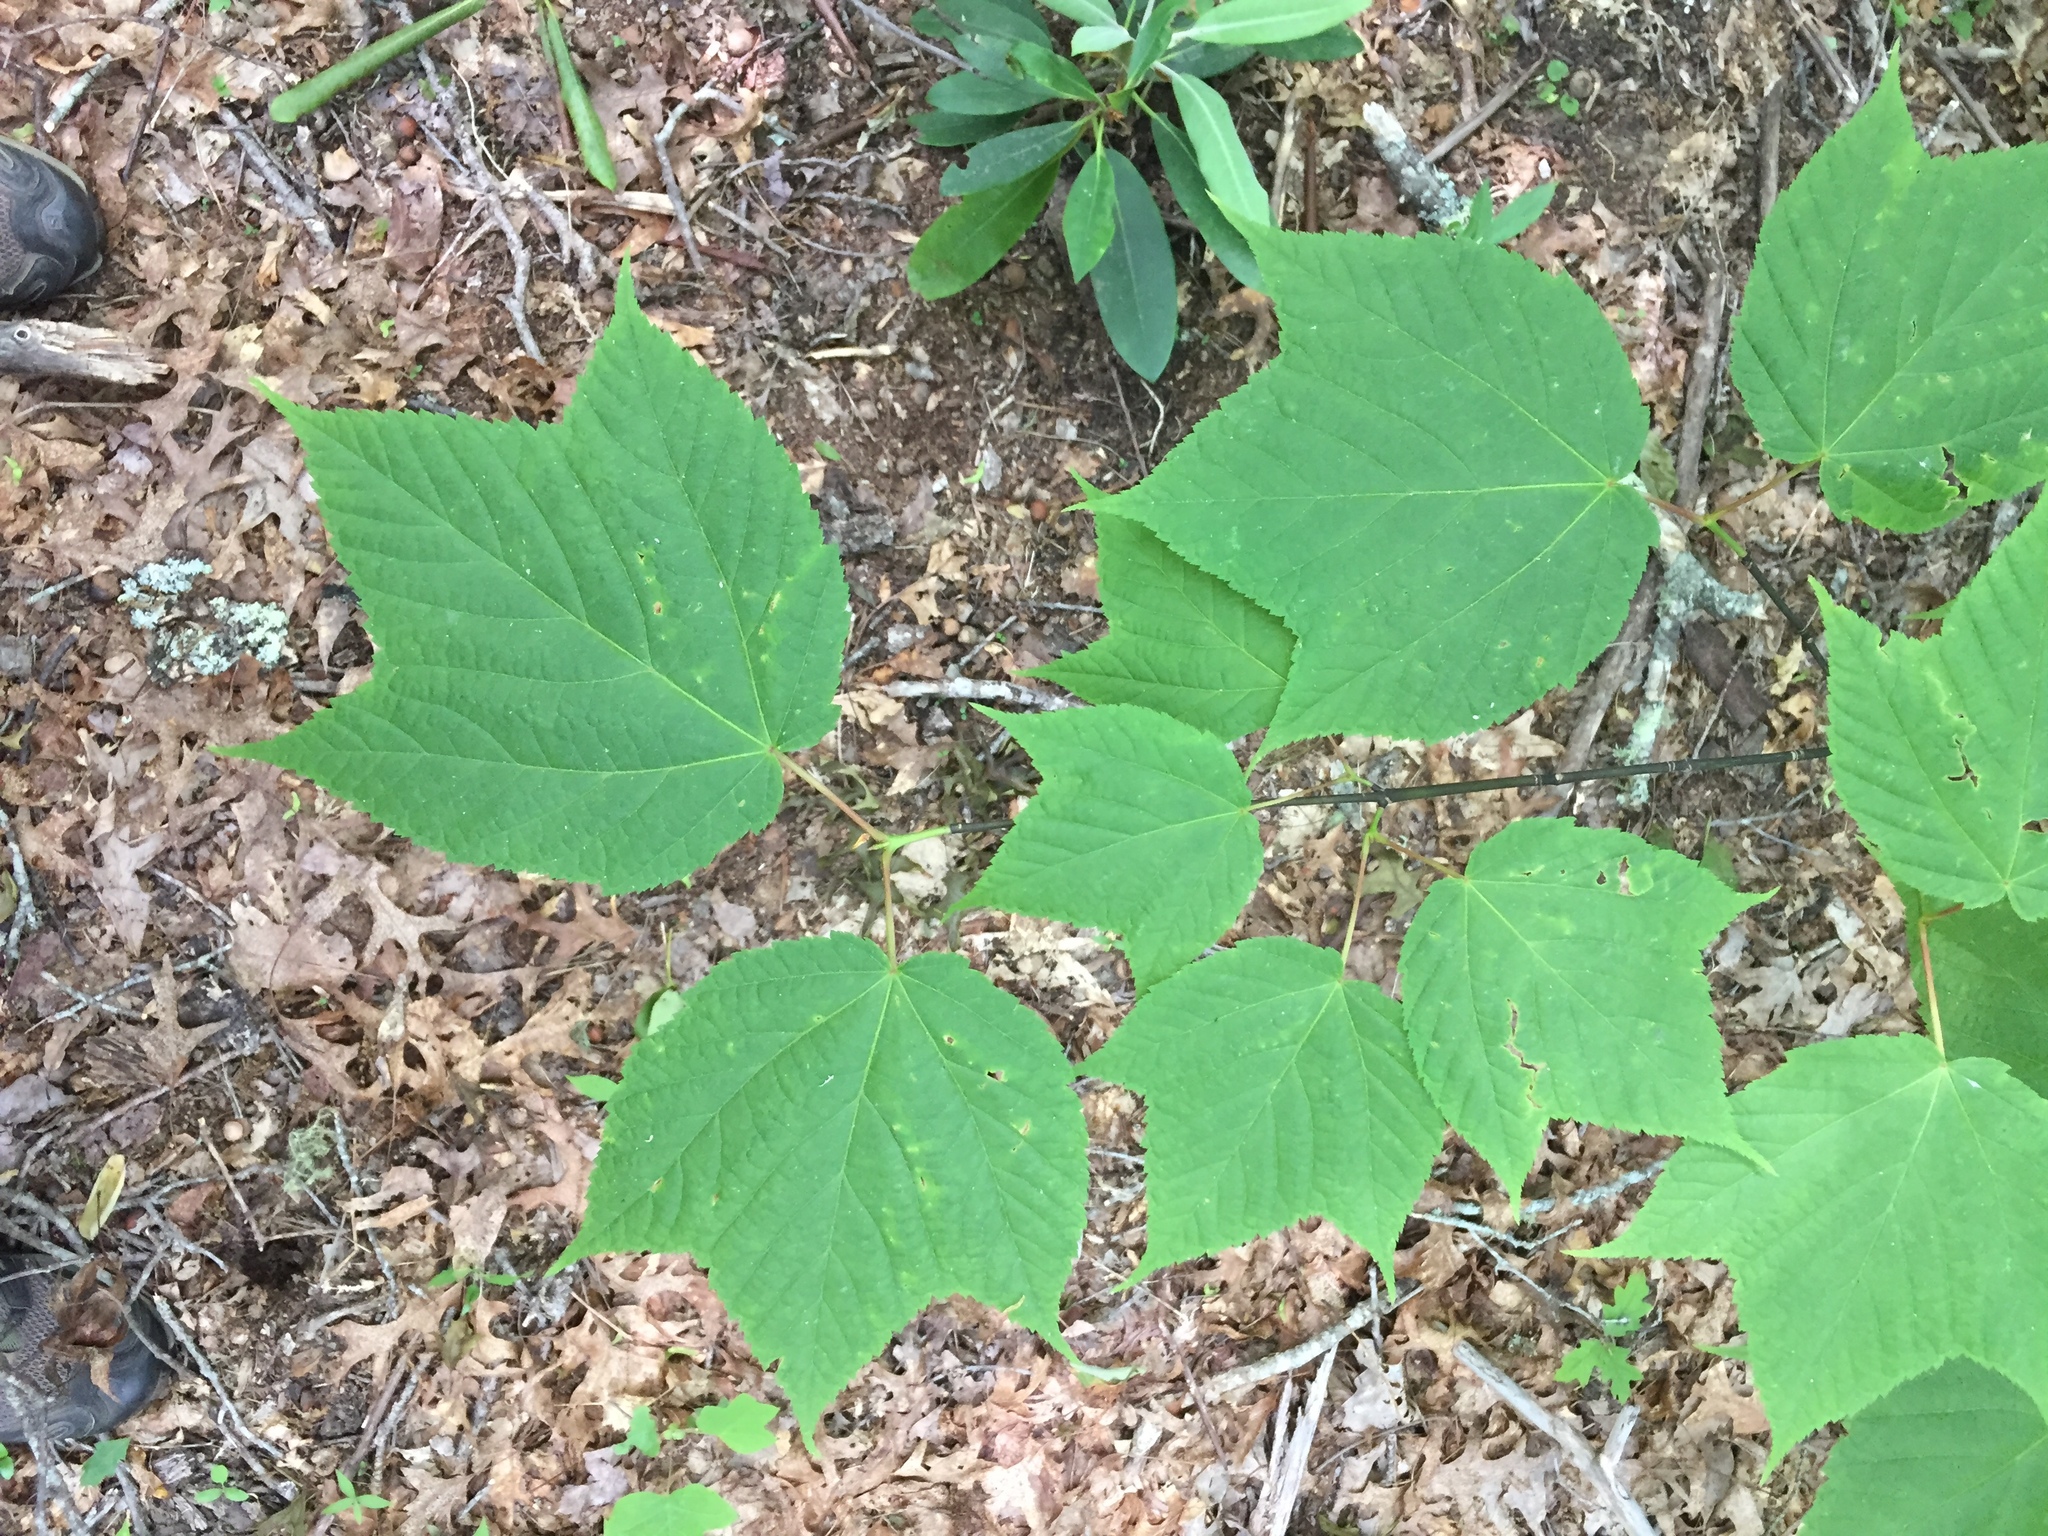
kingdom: Plantae
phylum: Tracheophyta
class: Magnoliopsida
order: Sapindales
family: Sapindaceae
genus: Acer
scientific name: Acer pensylvanicum
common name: Moosewood
